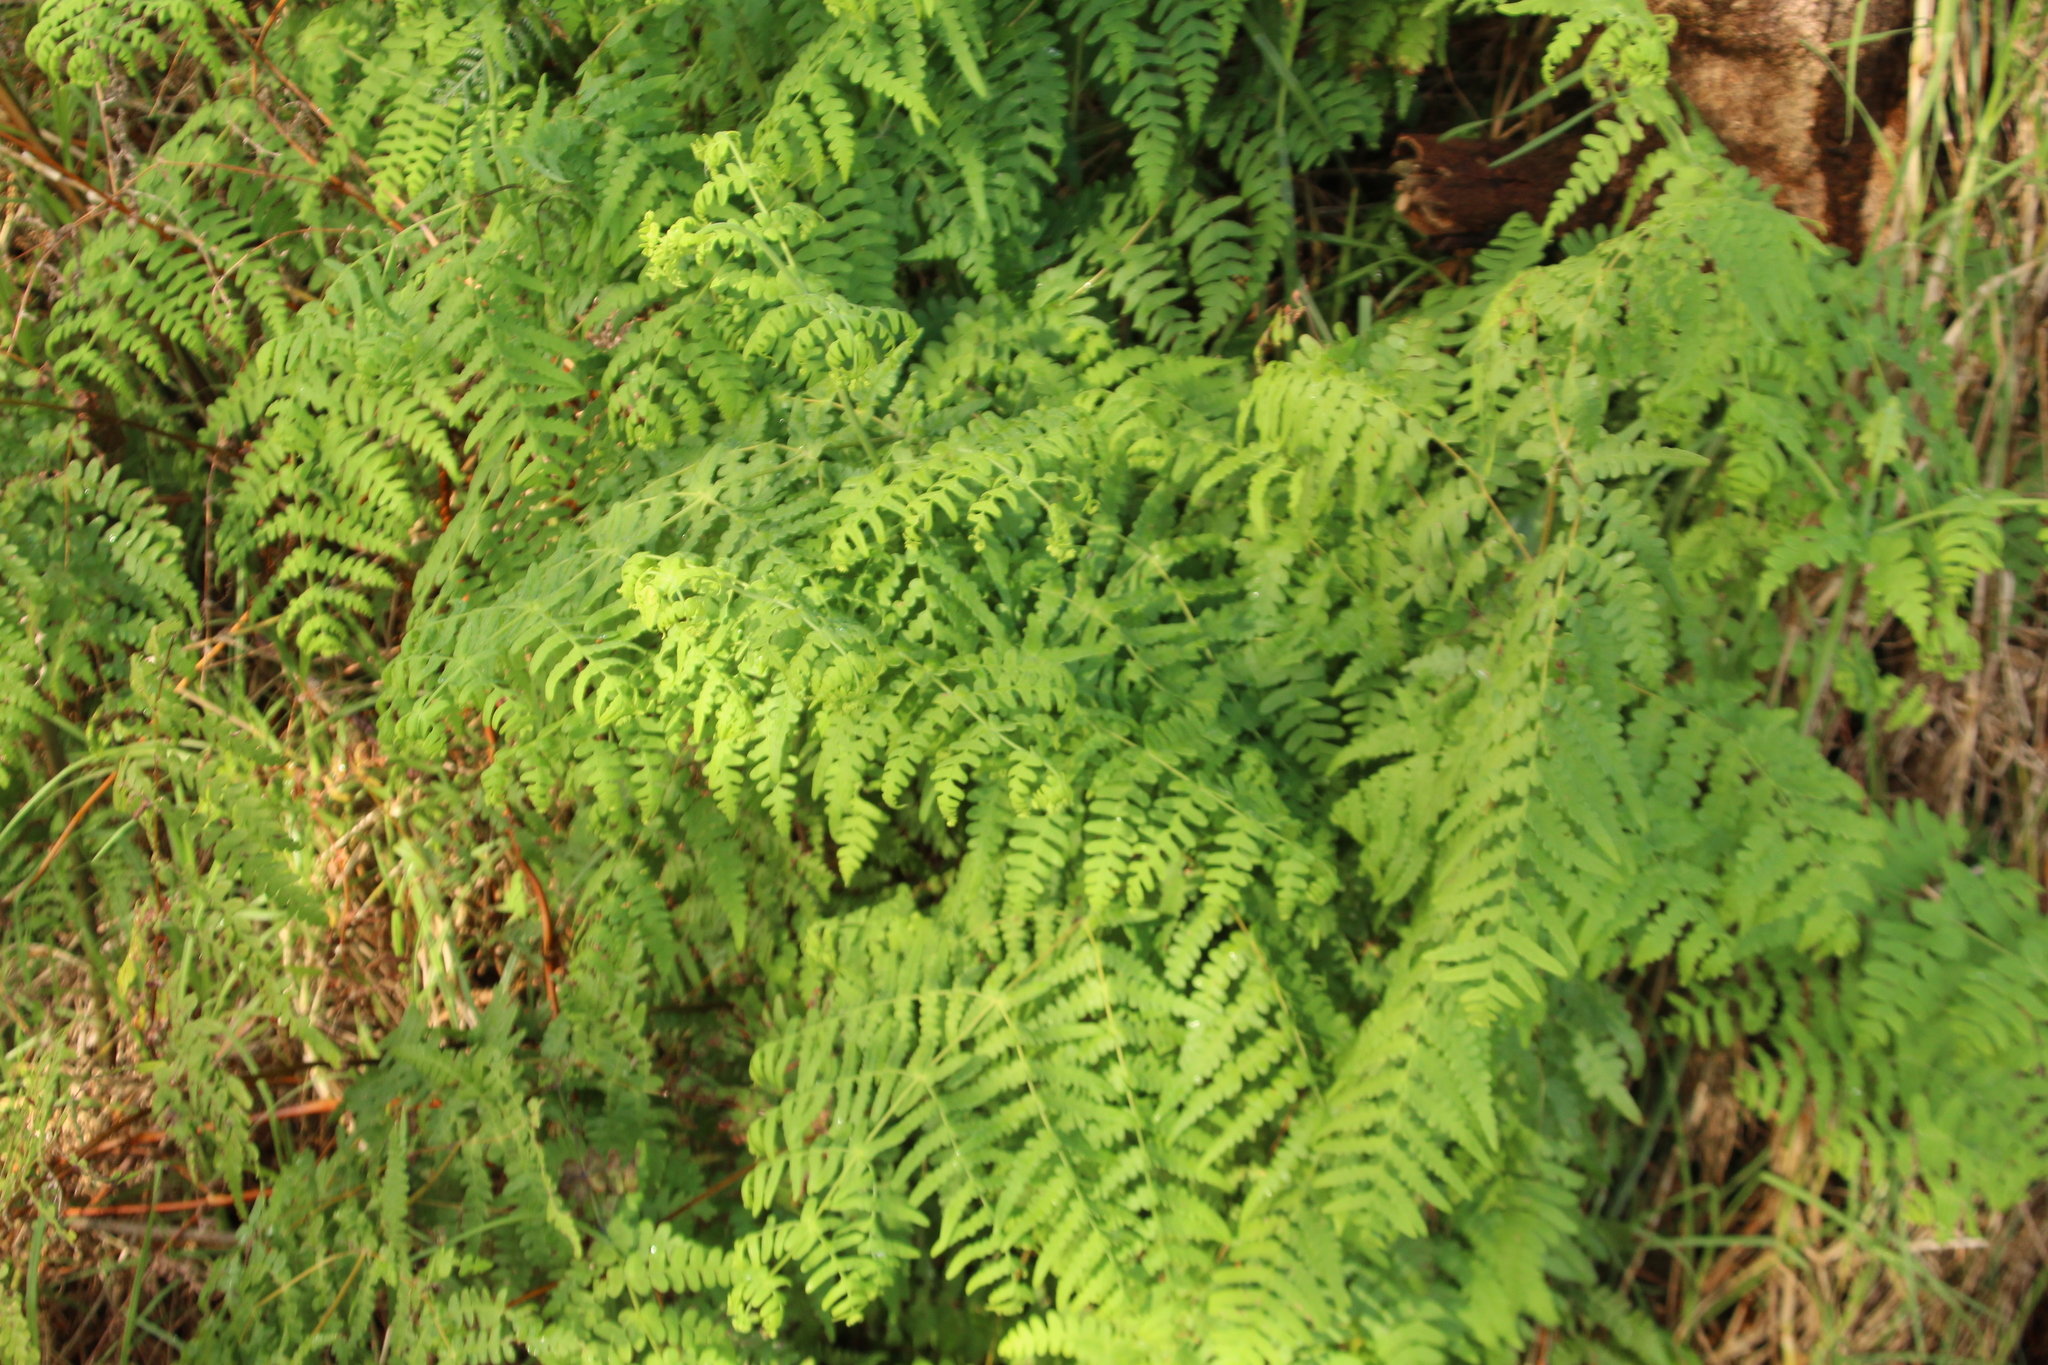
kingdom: Plantae
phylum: Tracheophyta
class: Polypodiopsida
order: Polypodiales
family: Dennstaedtiaceae
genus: Histiopteris
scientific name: Histiopteris incisa
